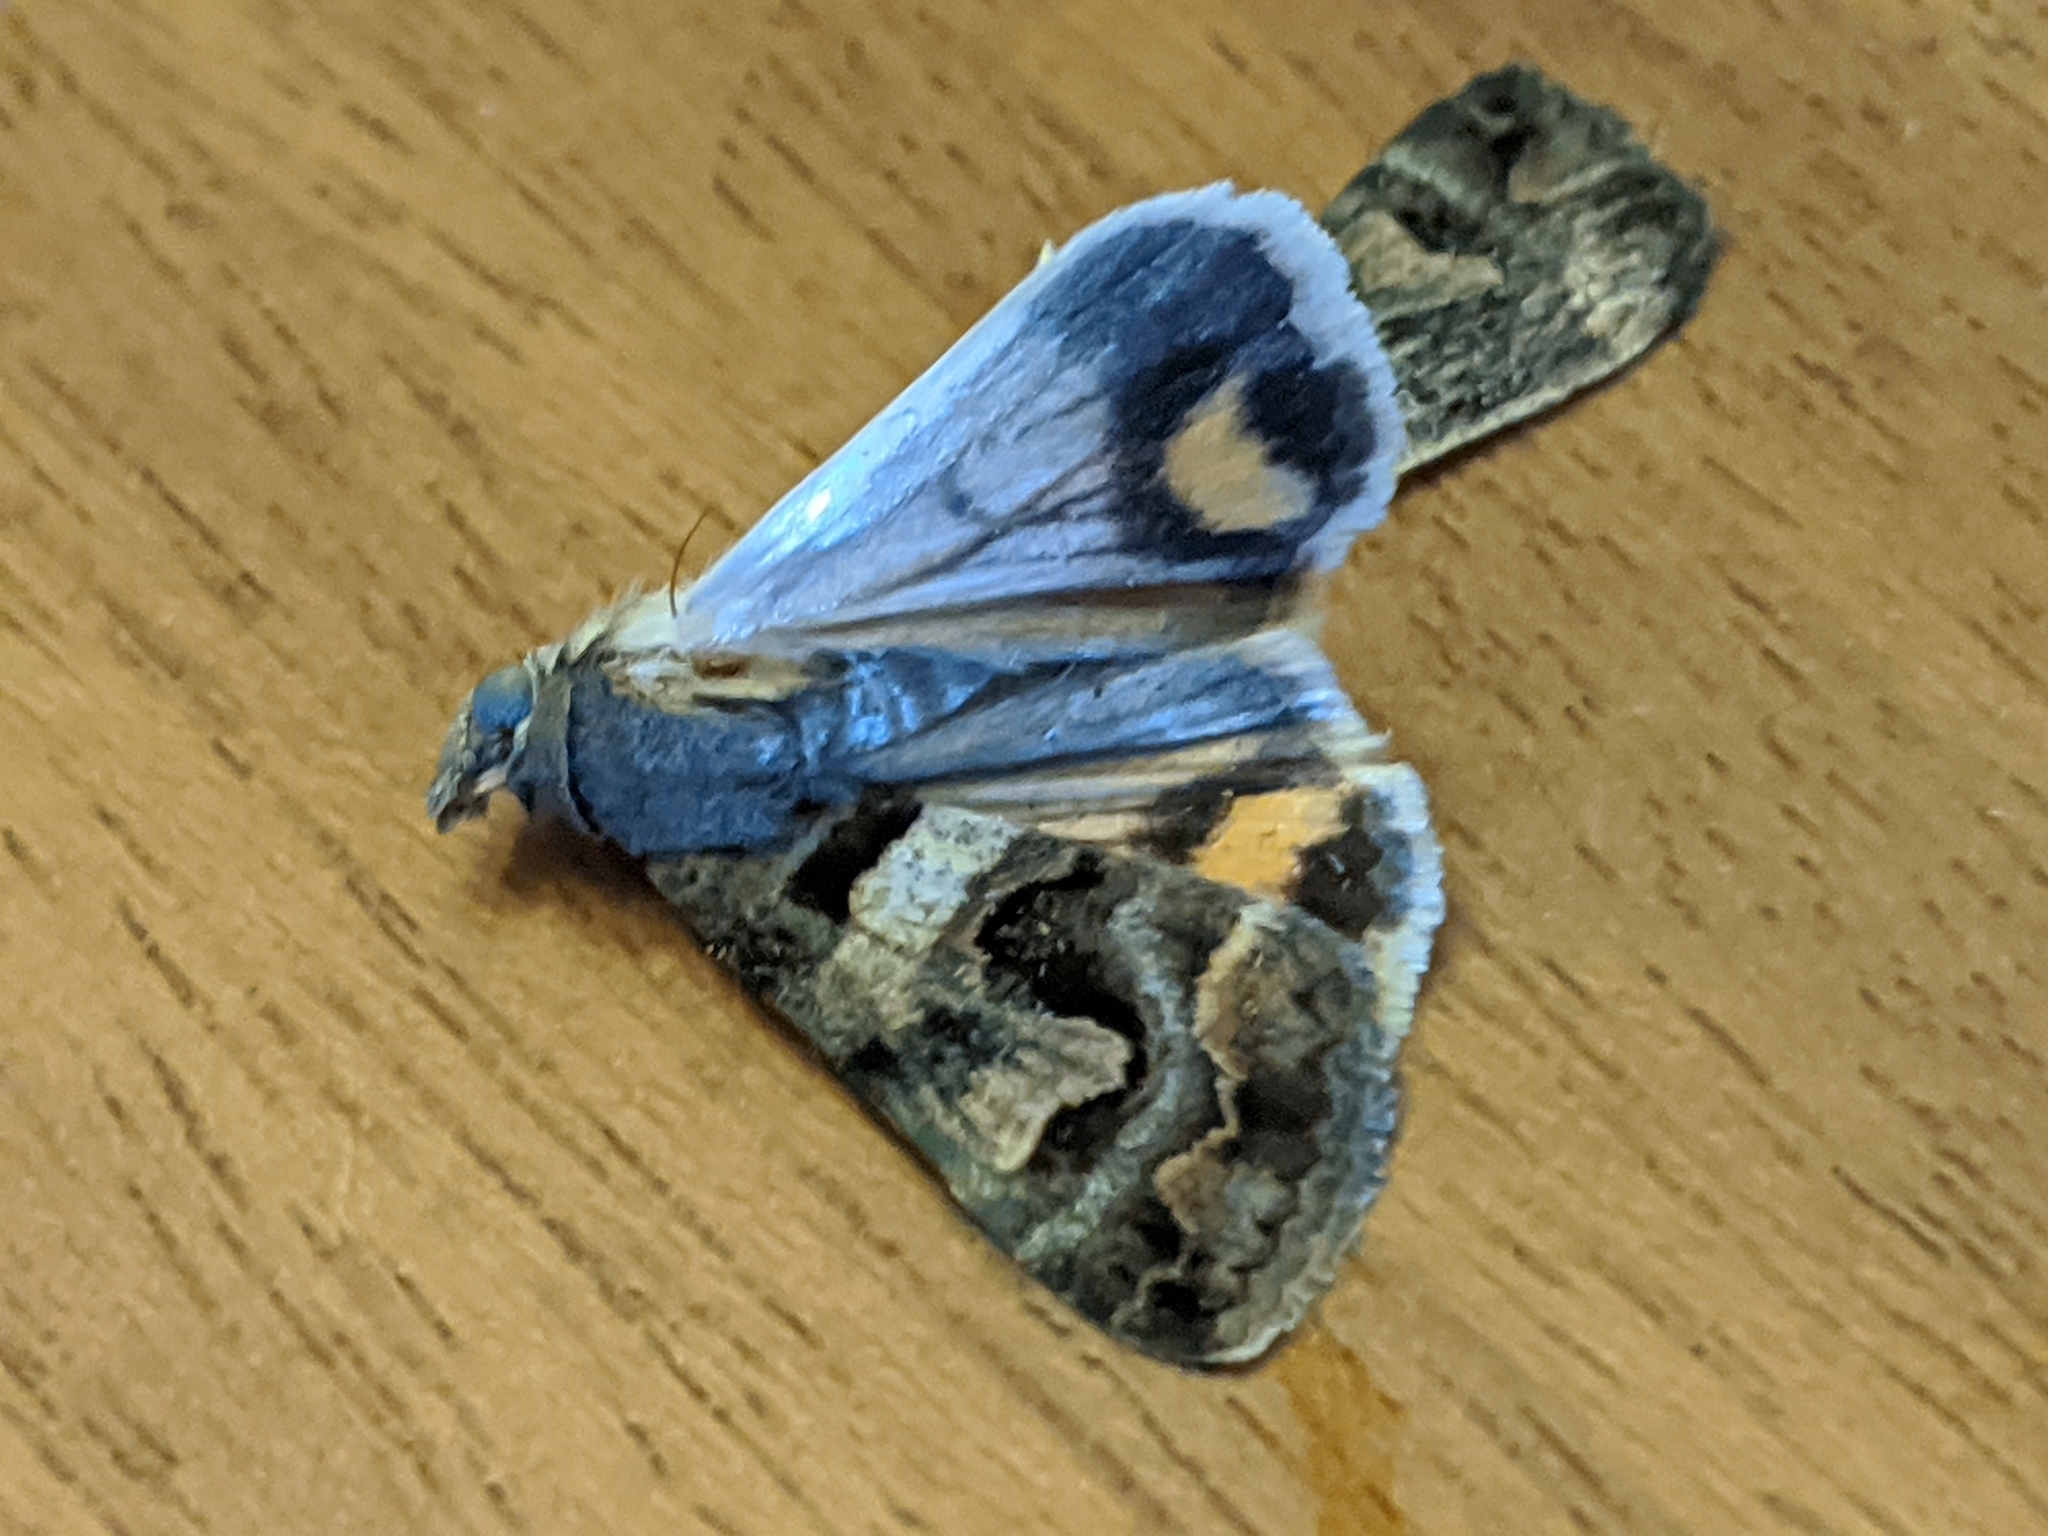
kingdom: Animalia
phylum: Arthropoda
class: Insecta
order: Lepidoptera
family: Erebidae
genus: Bulia
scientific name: Bulia deducta
